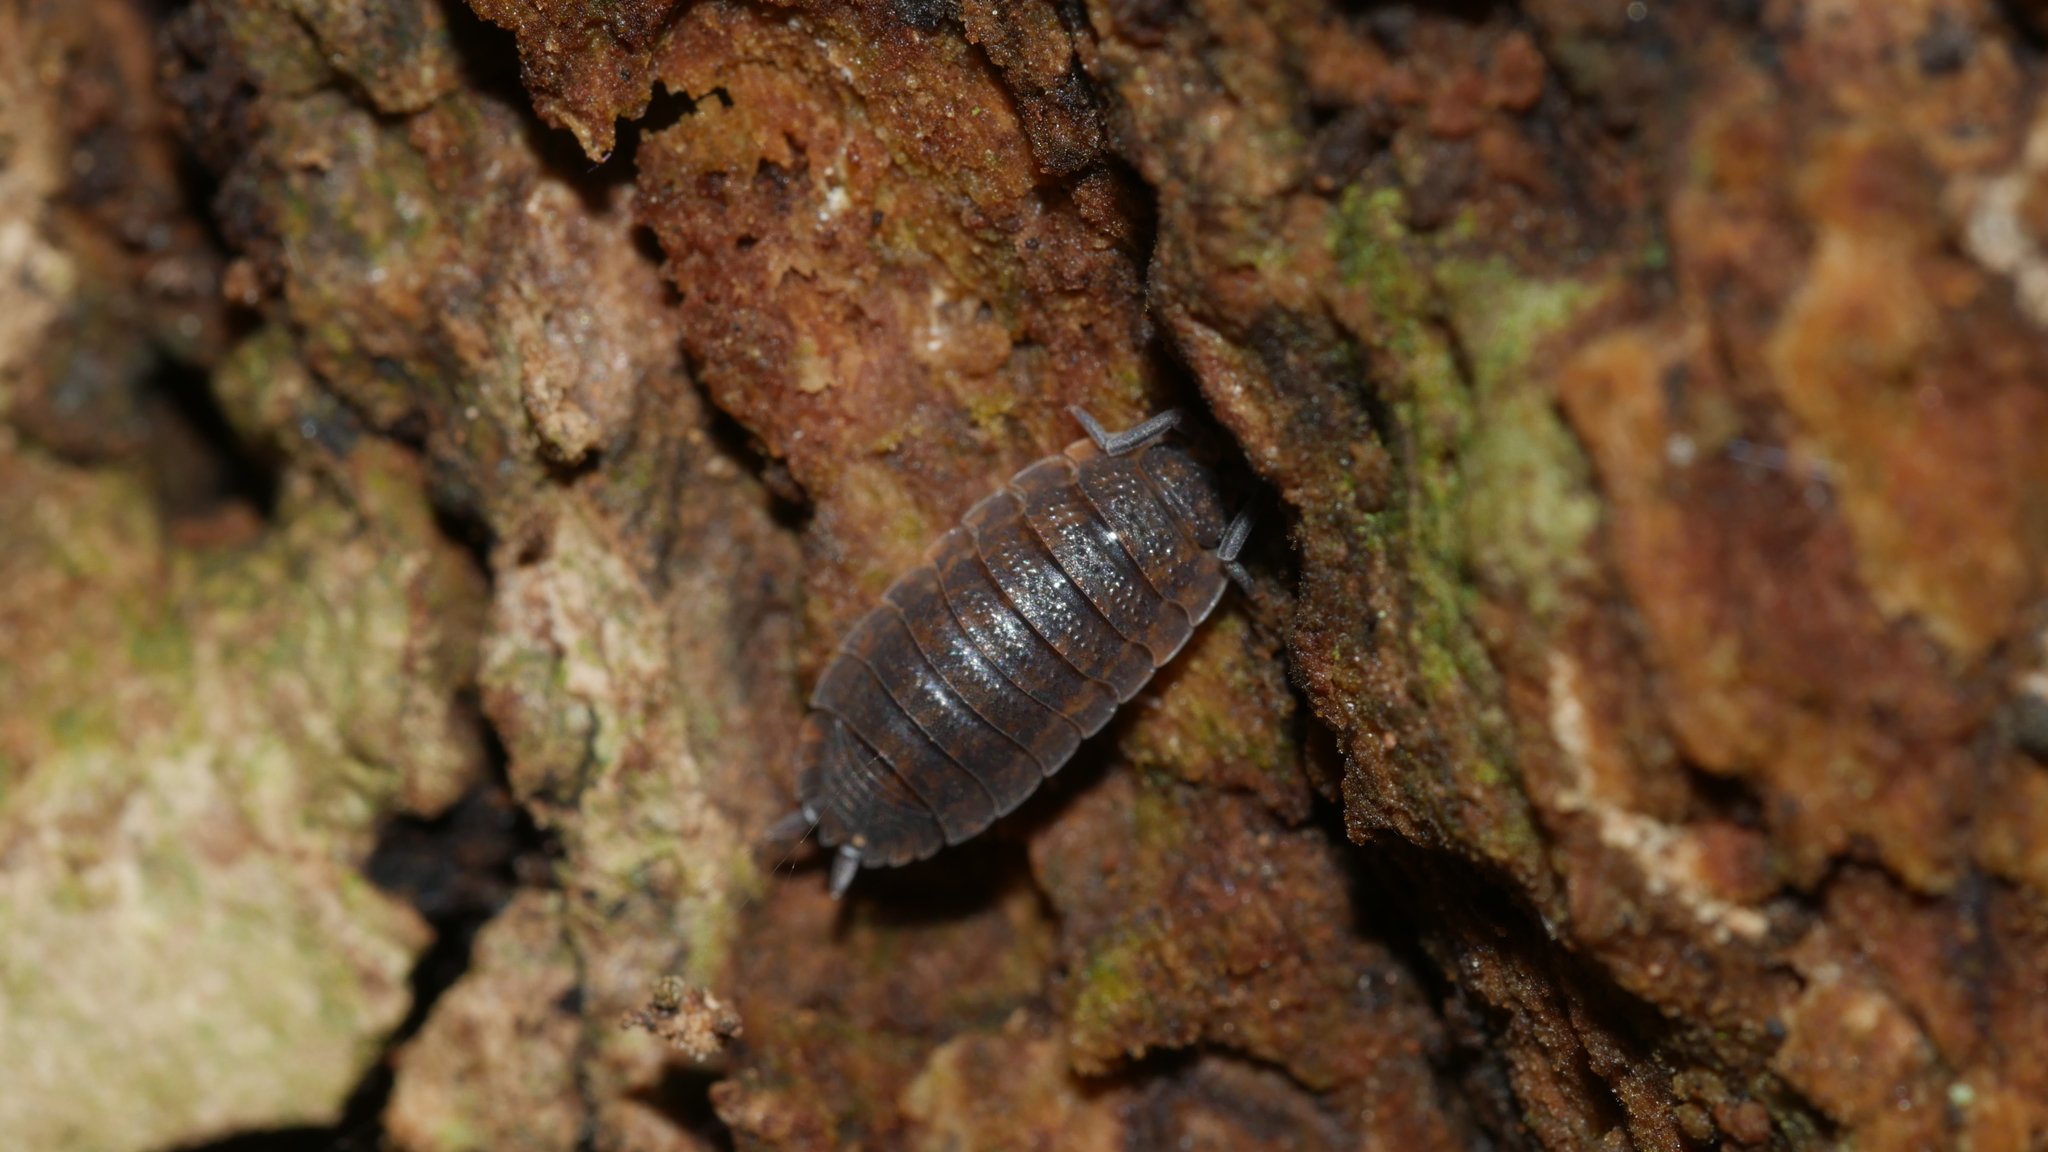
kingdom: Animalia
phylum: Arthropoda
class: Malacostraca
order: Isopoda
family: Porcellionidae
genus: Porcellio
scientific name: Porcellio scaber
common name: Common rough woodlouse
